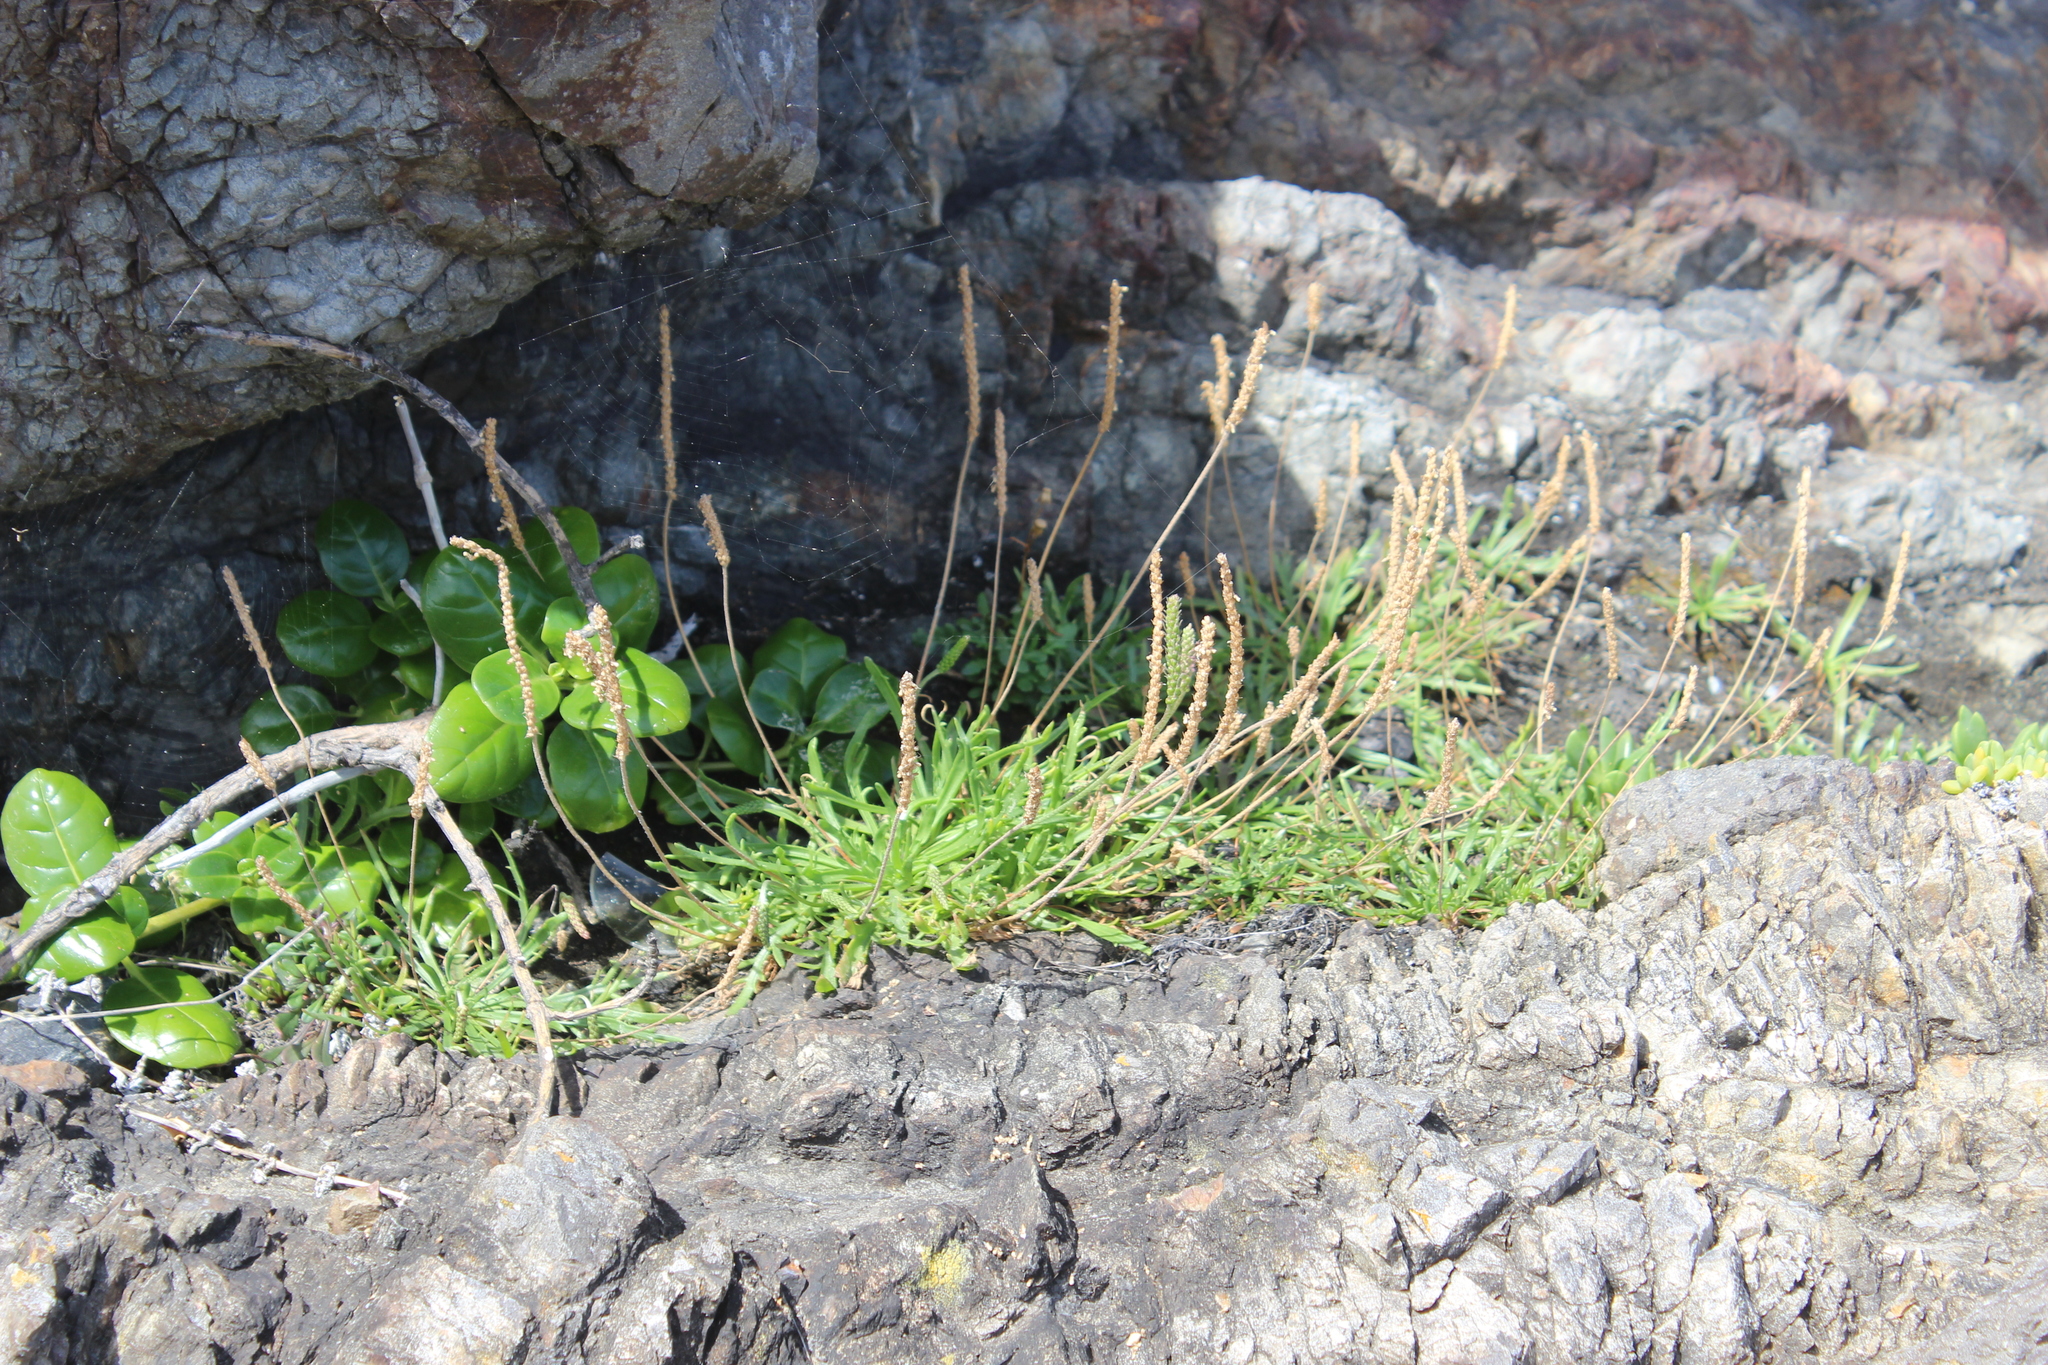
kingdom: Plantae
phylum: Tracheophyta
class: Magnoliopsida
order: Lamiales
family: Plantaginaceae
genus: Plantago
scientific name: Plantago coronopus
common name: Buck's-horn plantain
